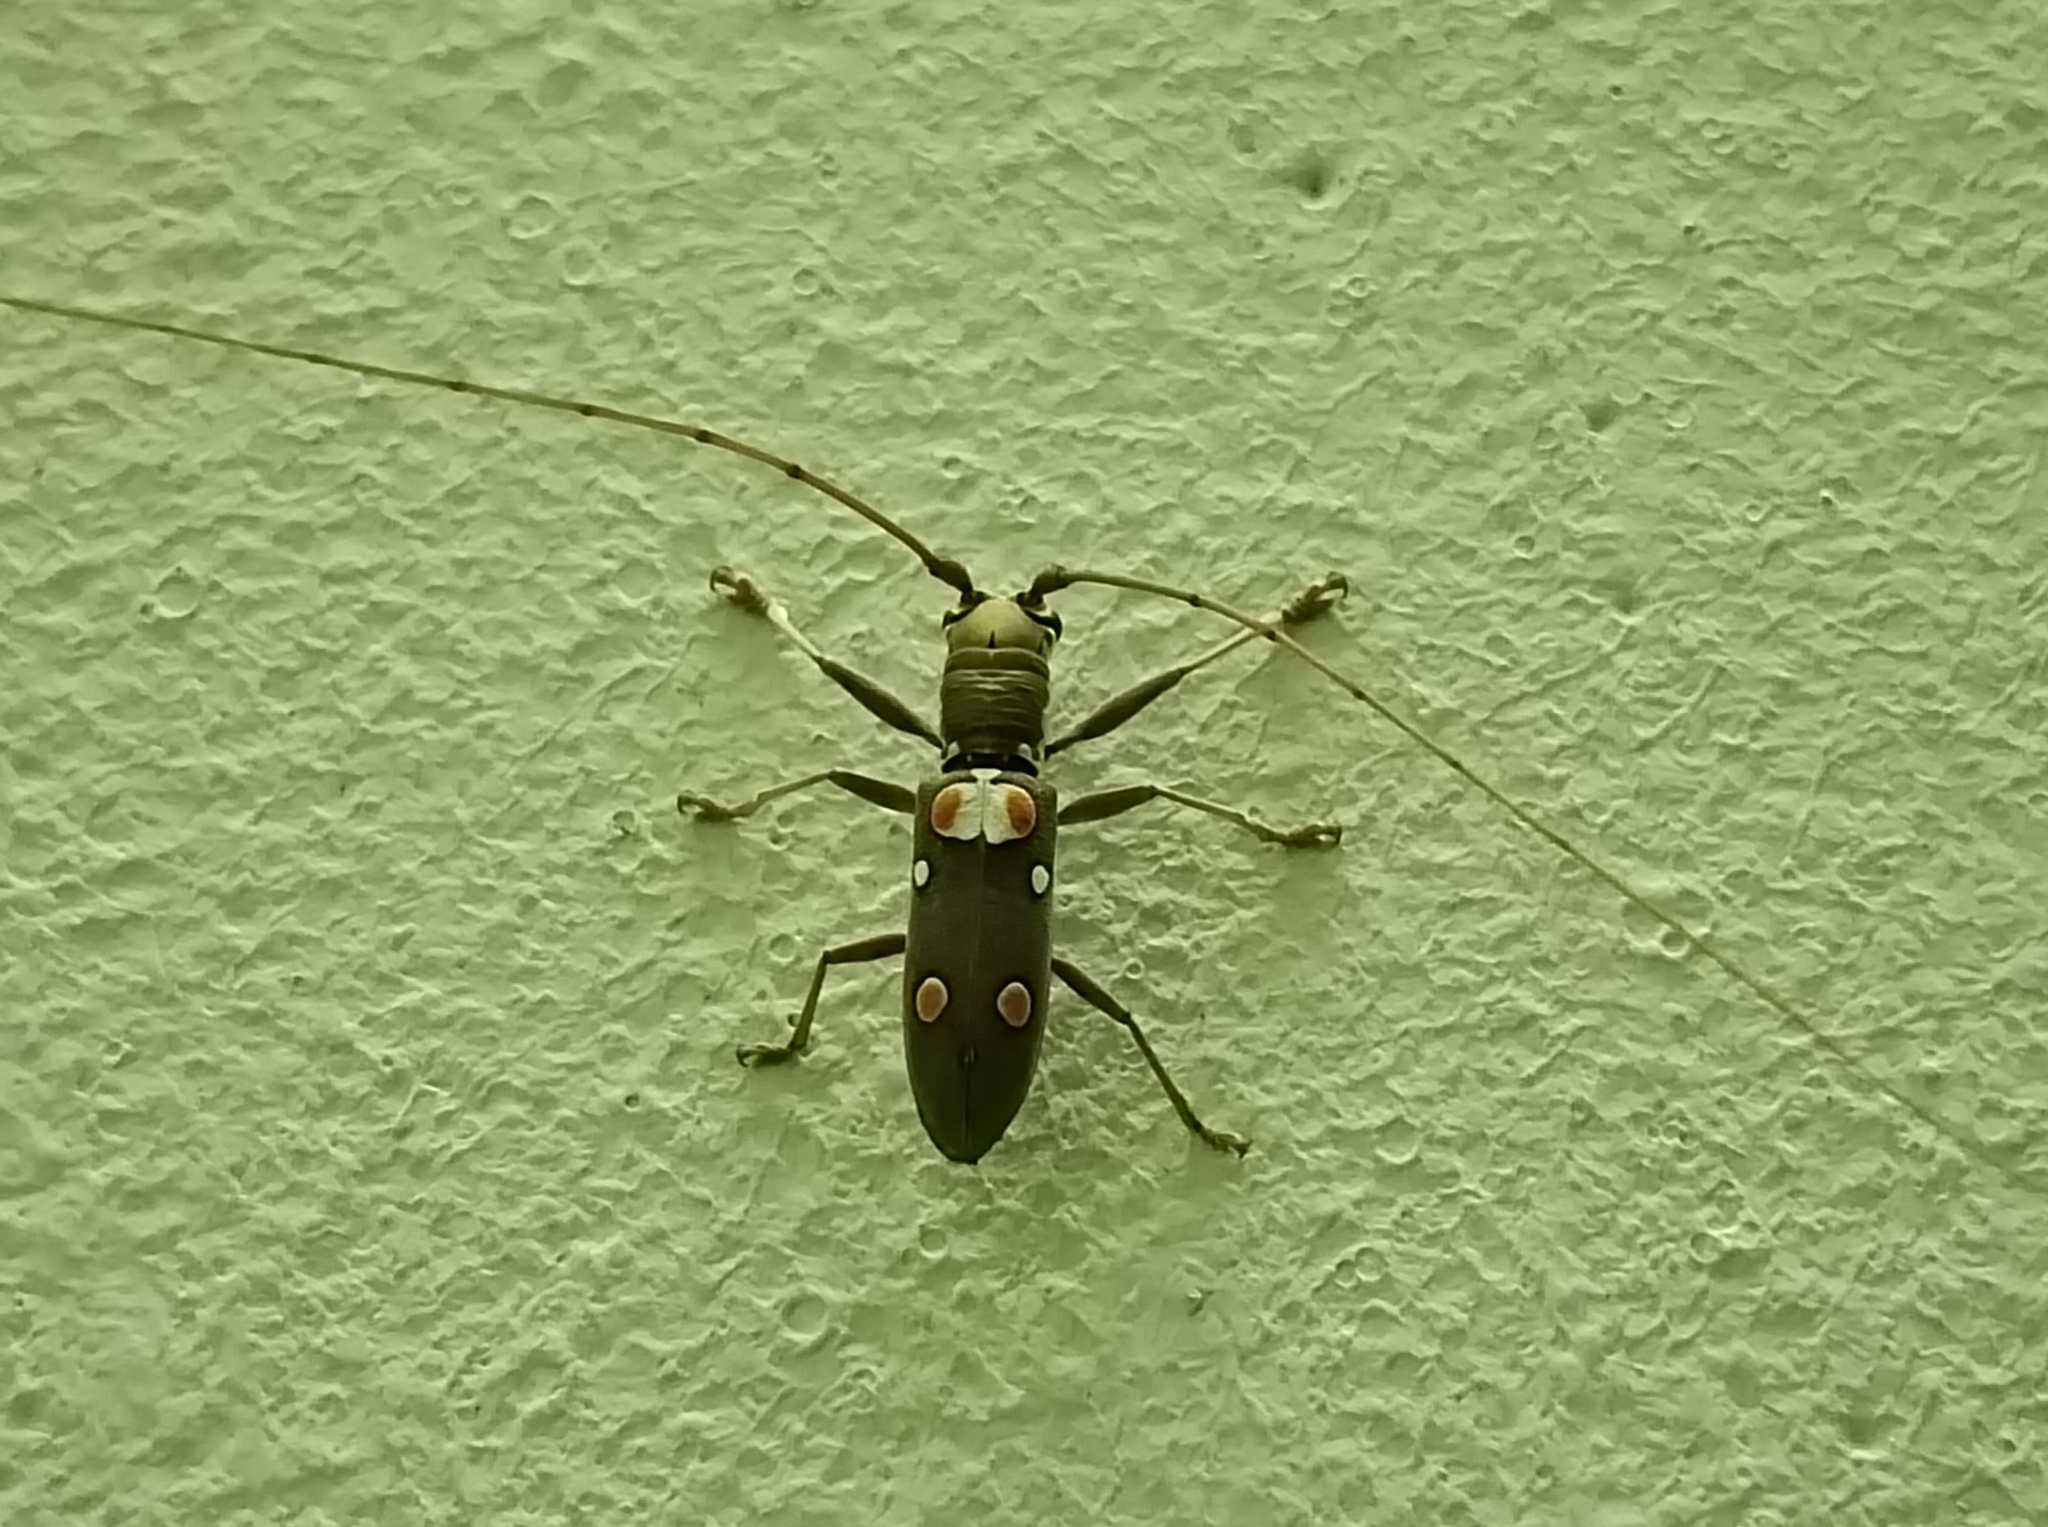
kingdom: Animalia
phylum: Arthropoda
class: Insecta
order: Coleoptera
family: Cerambycidae
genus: Olenecamptus
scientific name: Olenecamptus bilobus
